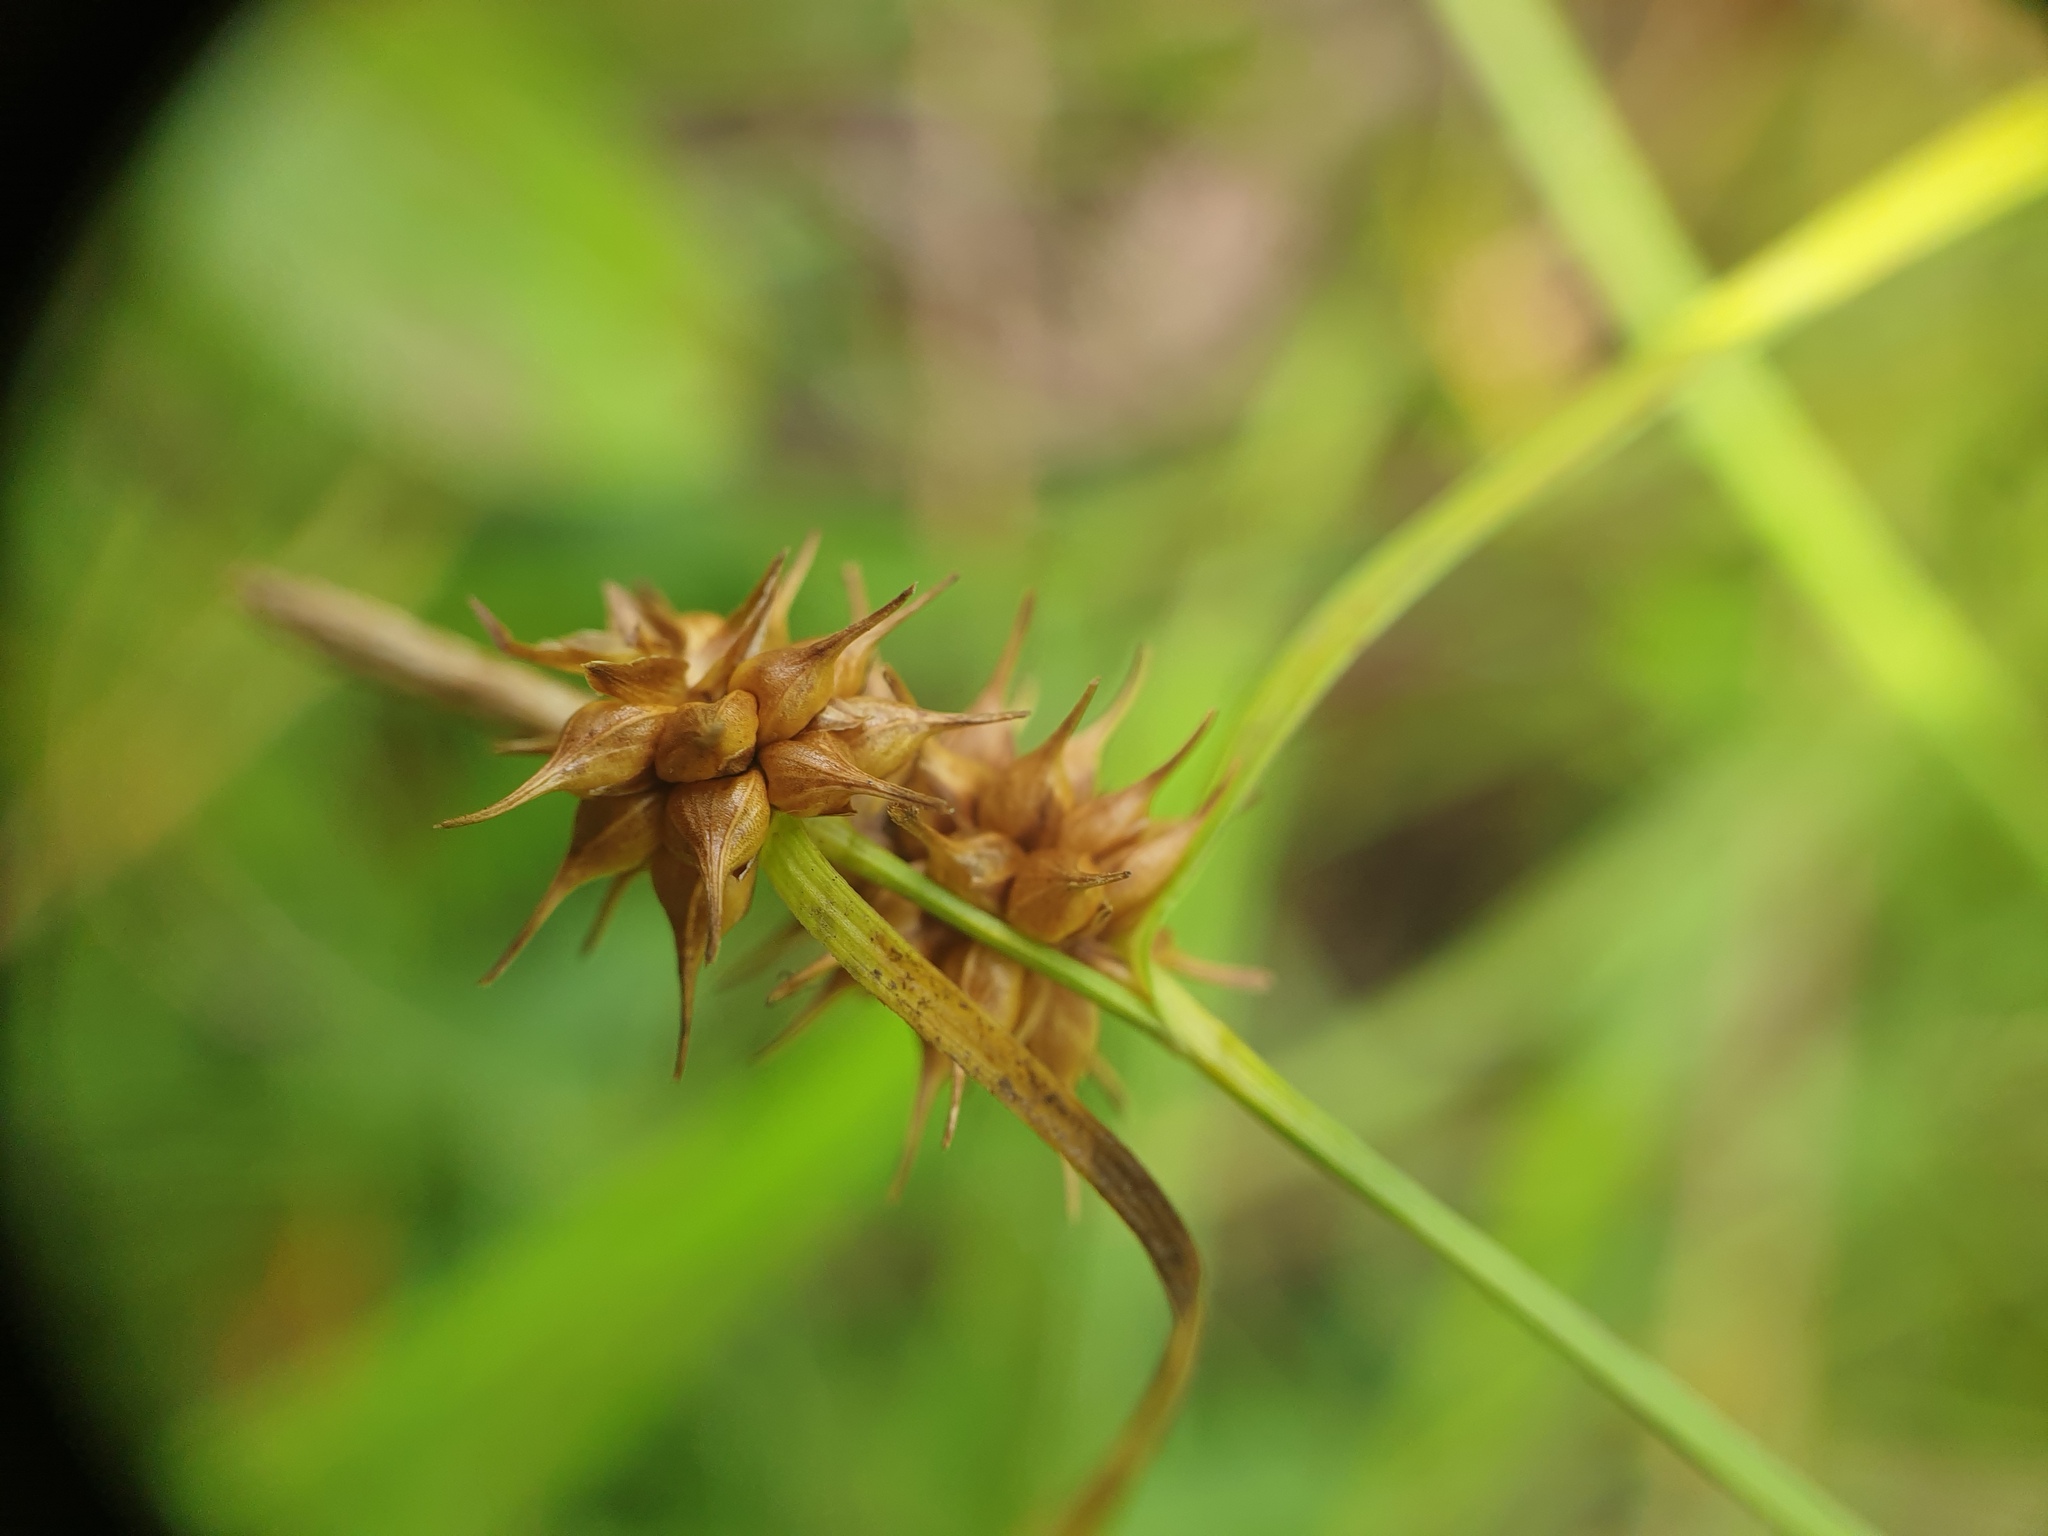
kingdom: Plantae
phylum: Tracheophyta
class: Liliopsida
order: Poales
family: Cyperaceae
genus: Carex
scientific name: Carex flava
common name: Large yellow-sedge
